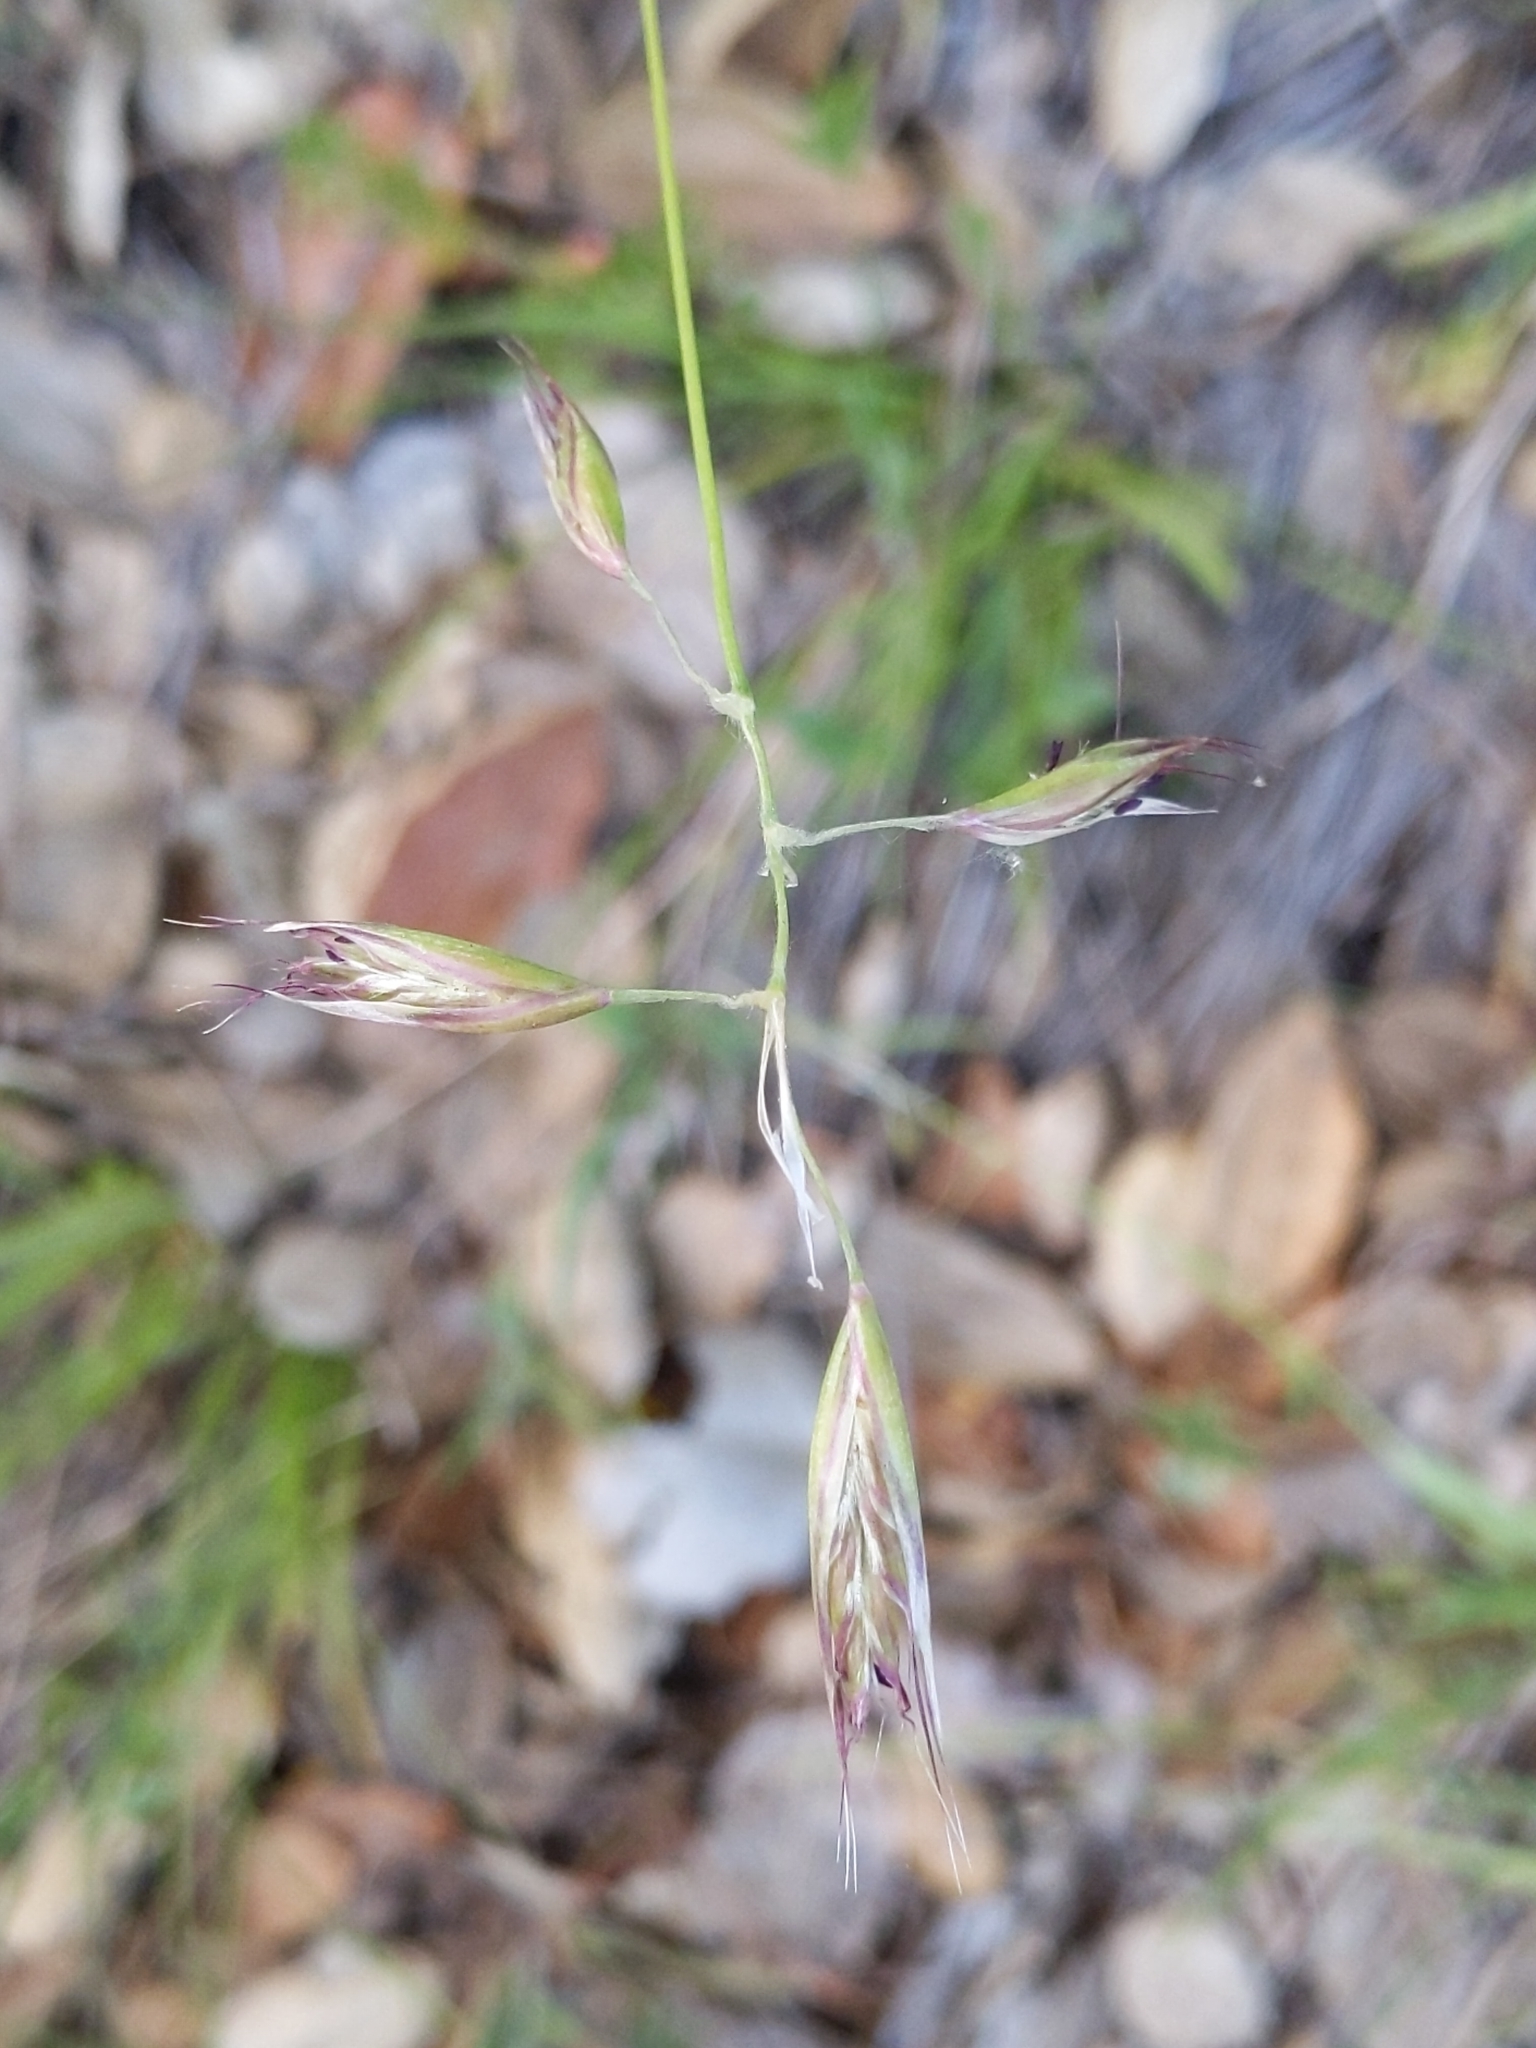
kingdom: Plantae
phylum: Tracheophyta
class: Liliopsida
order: Poales
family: Poaceae
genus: Danthonia
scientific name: Danthonia californica
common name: California oat grass
